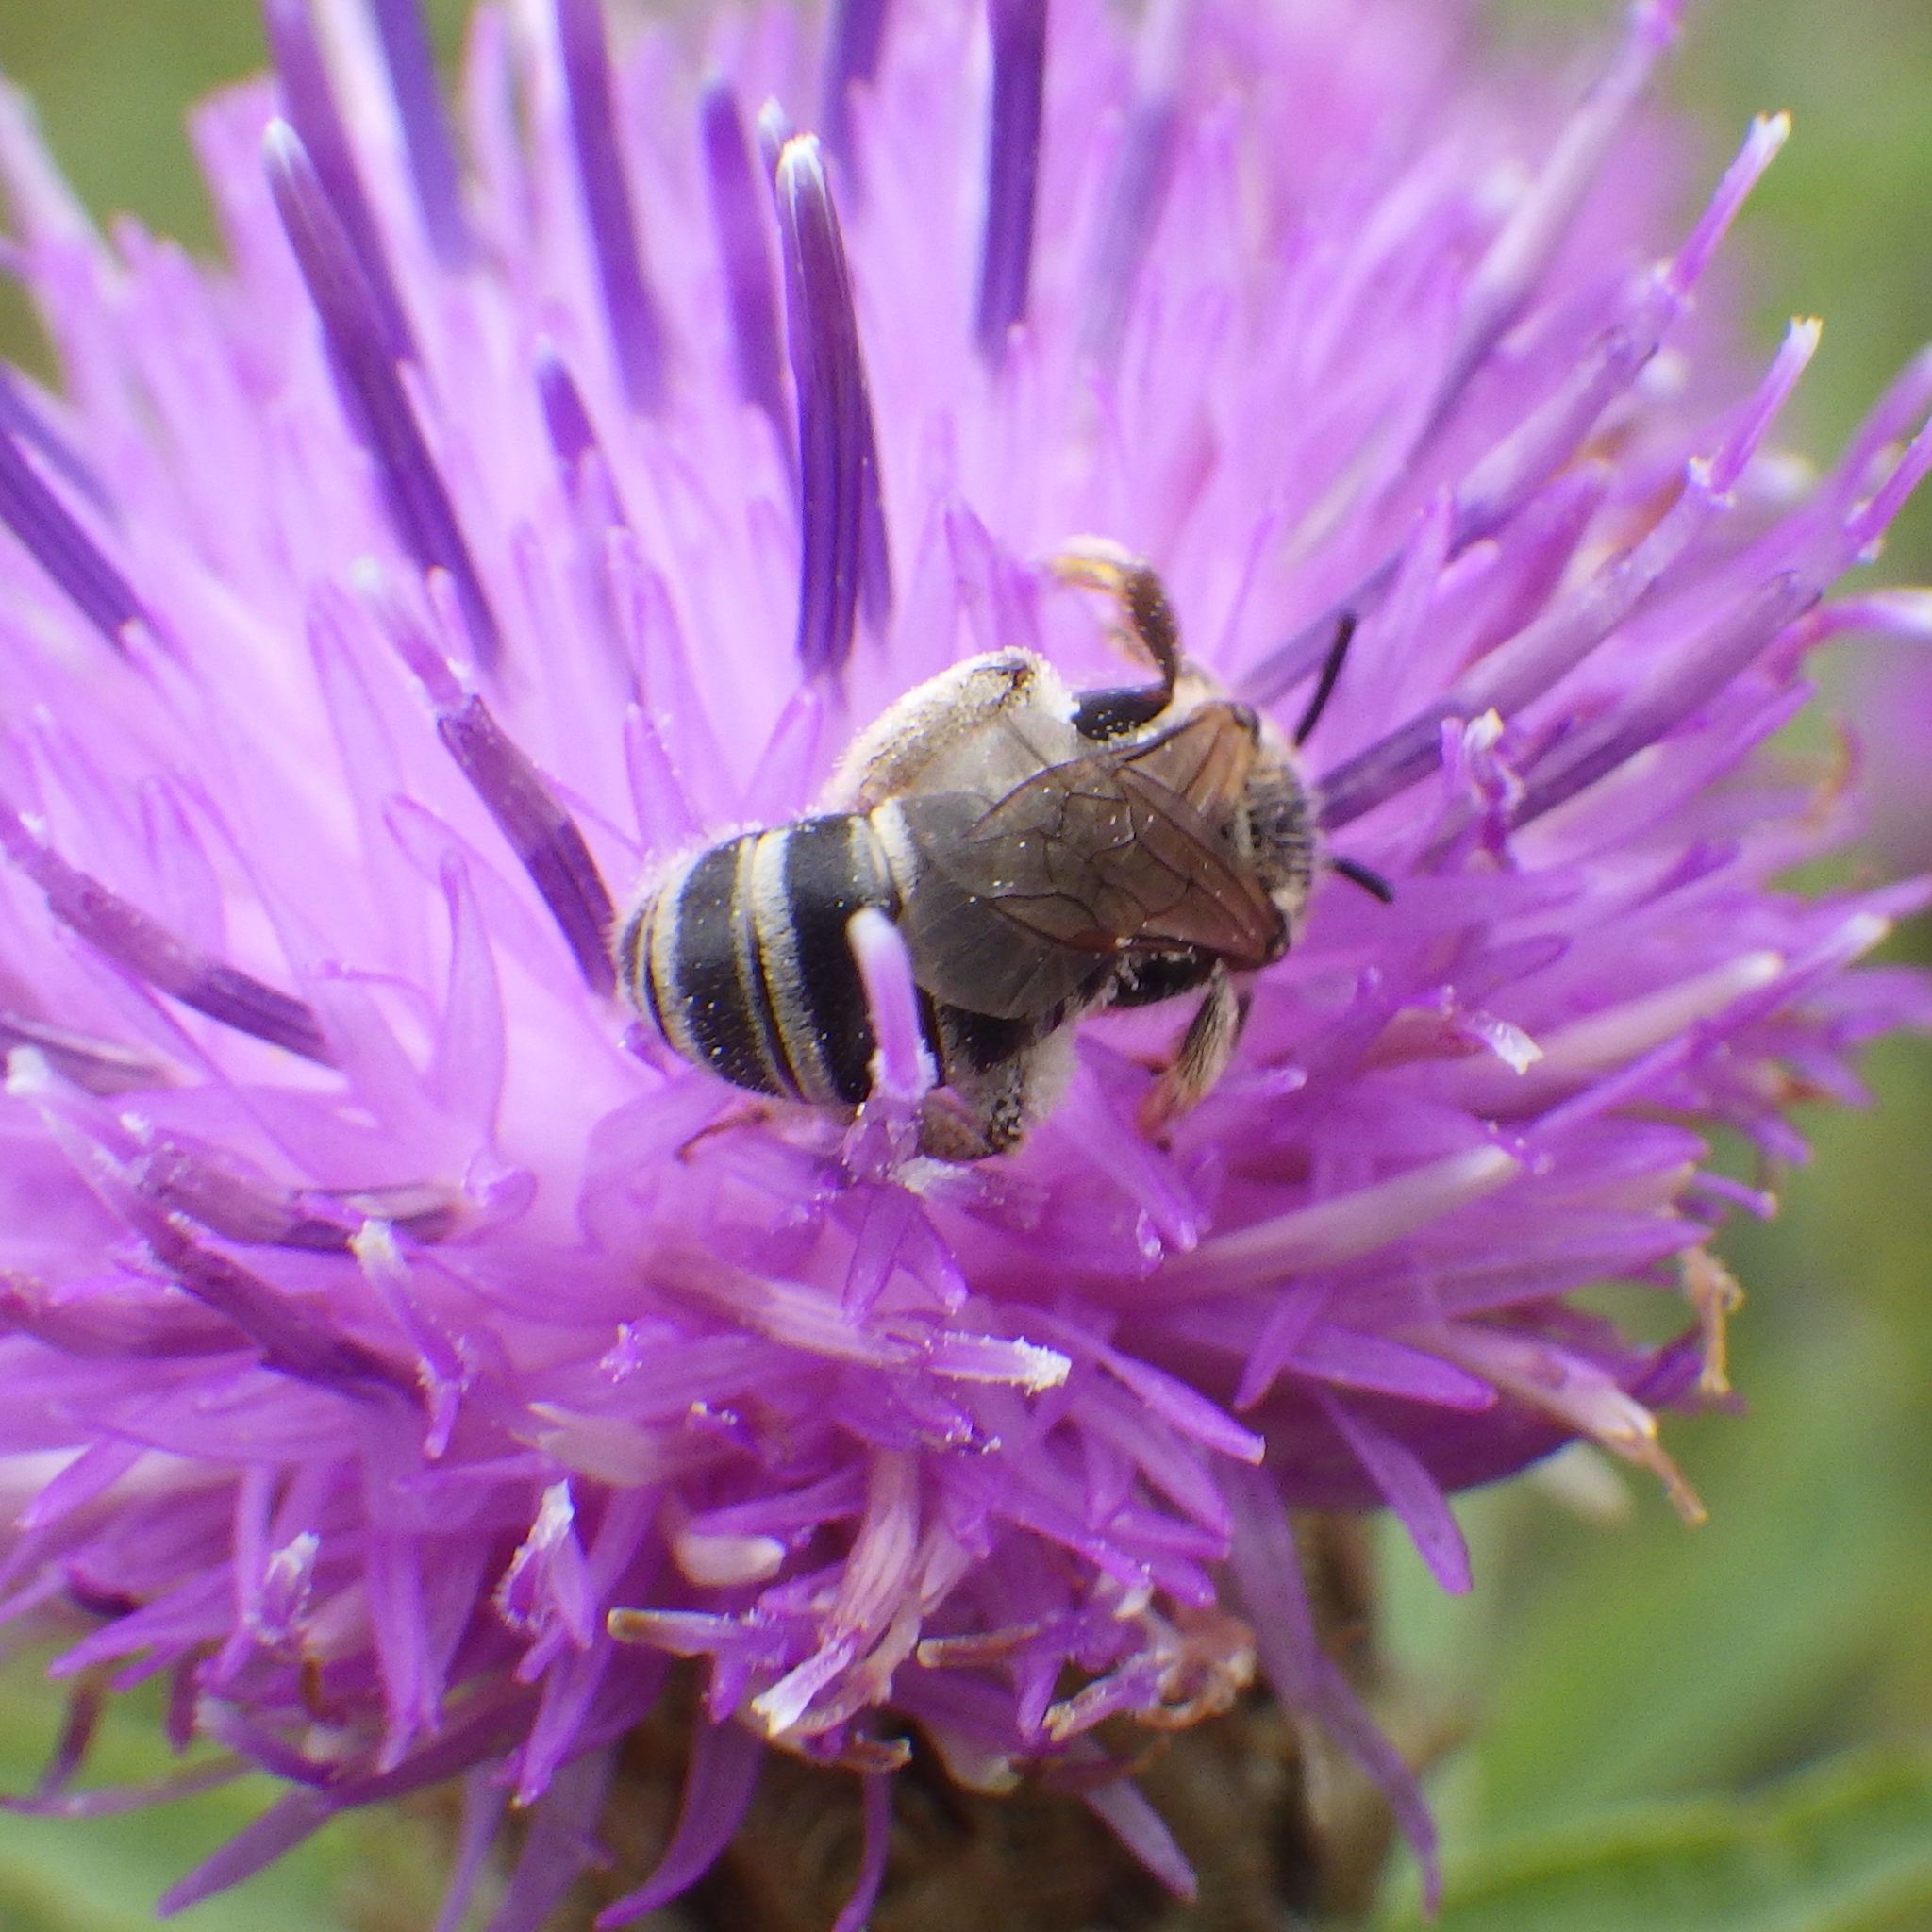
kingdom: Animalia
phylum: Arthropoda
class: Insecta
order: Hymenoptera
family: Halictidae
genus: Halictus
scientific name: Halictus ligatus
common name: Ligated furrow bee
